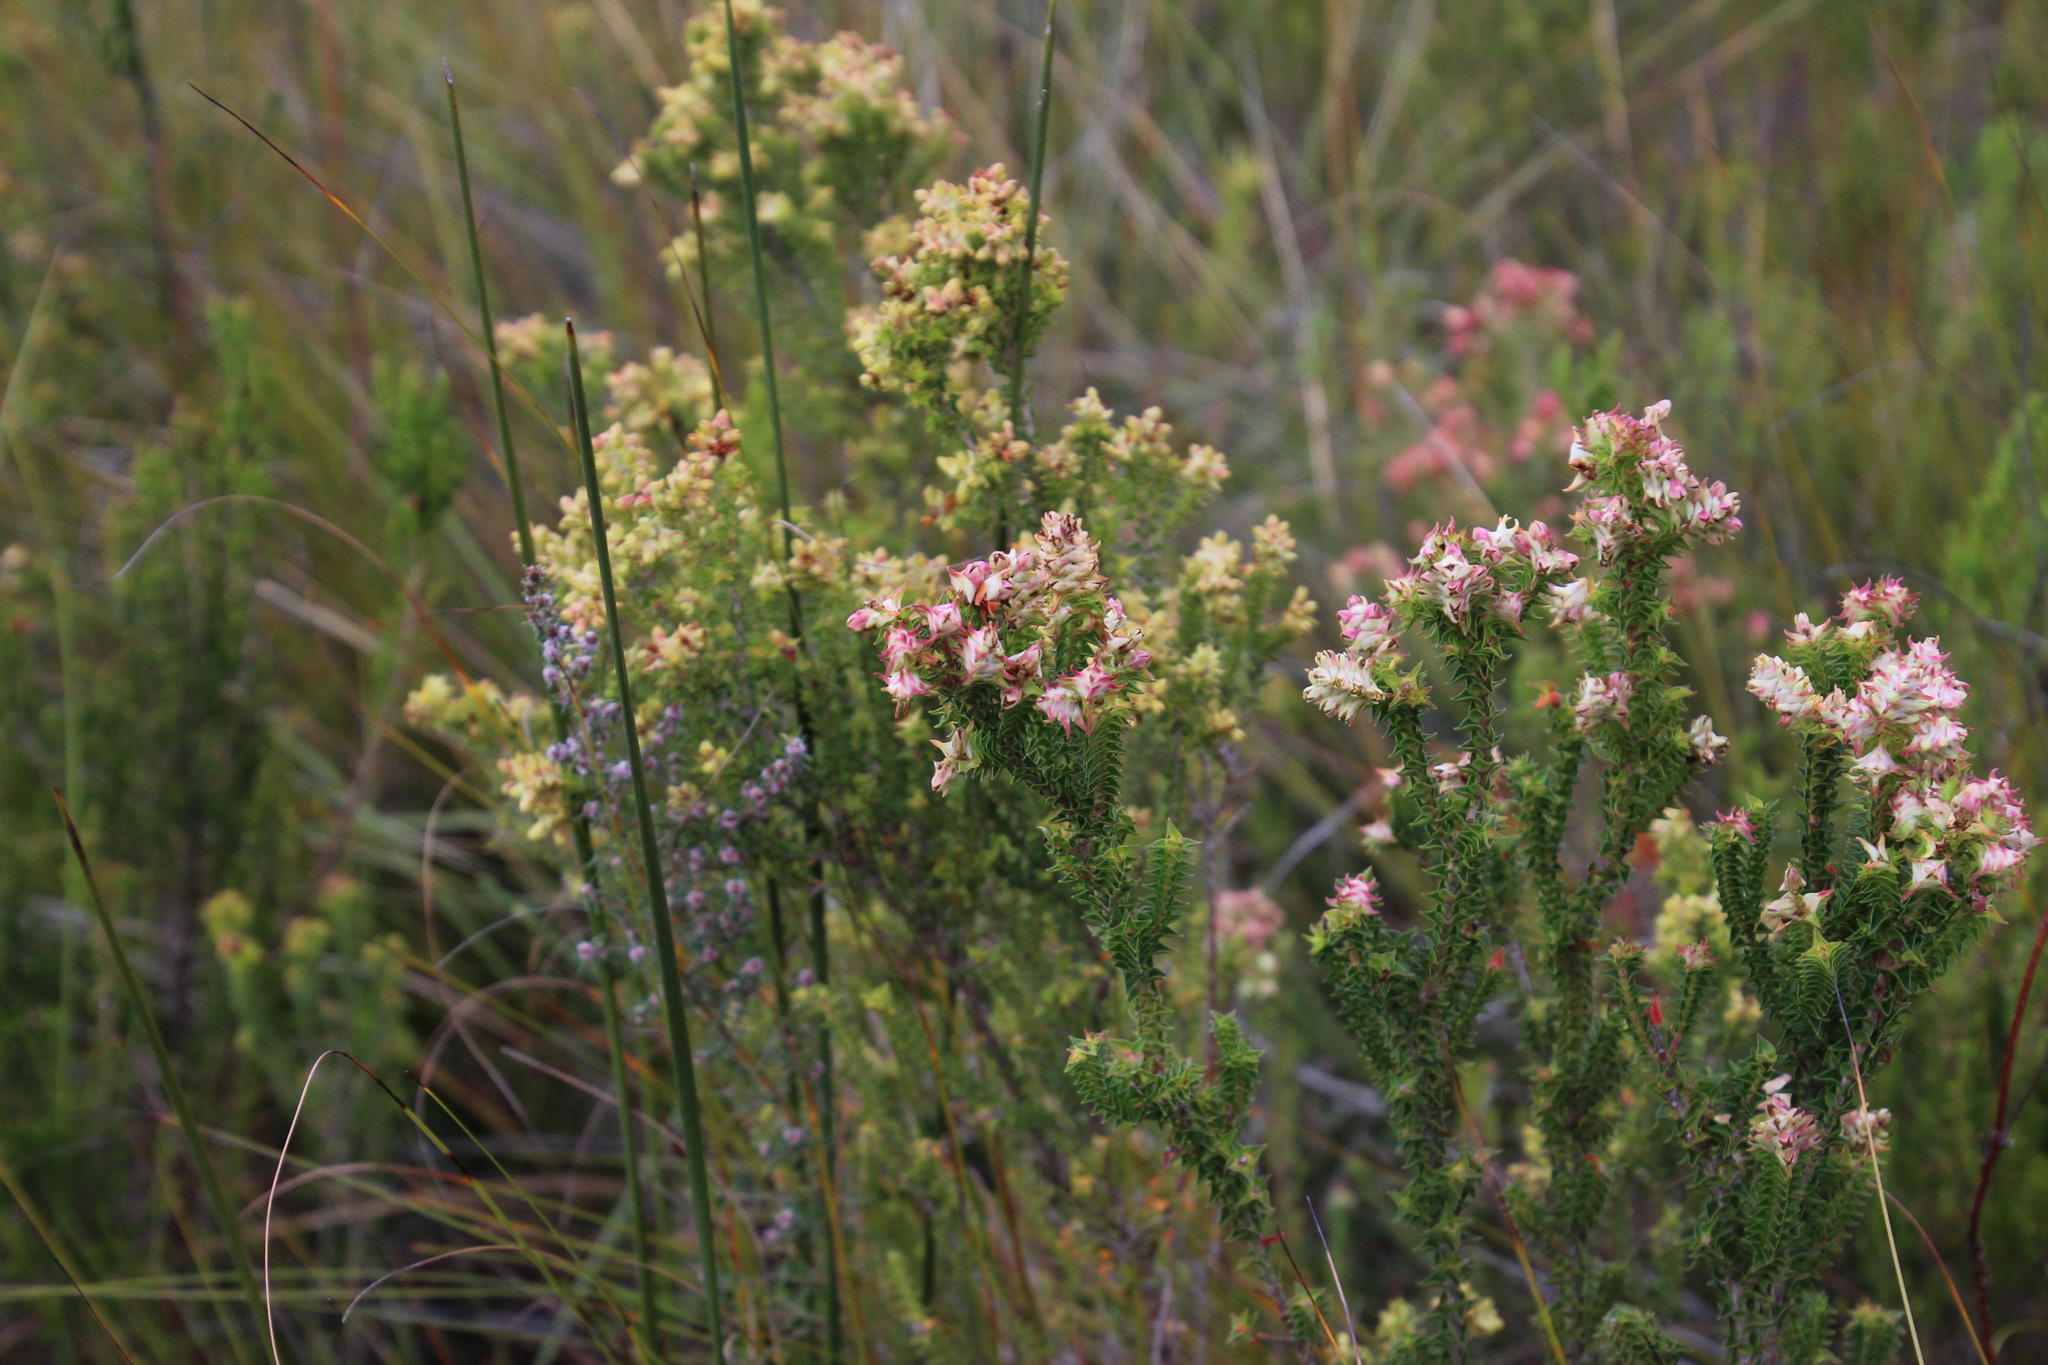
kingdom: Plantae
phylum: Tracheophyta
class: Magnoliopsida
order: Myrtales
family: Penaeaceae
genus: Penaea
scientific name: Penaea cneorum
